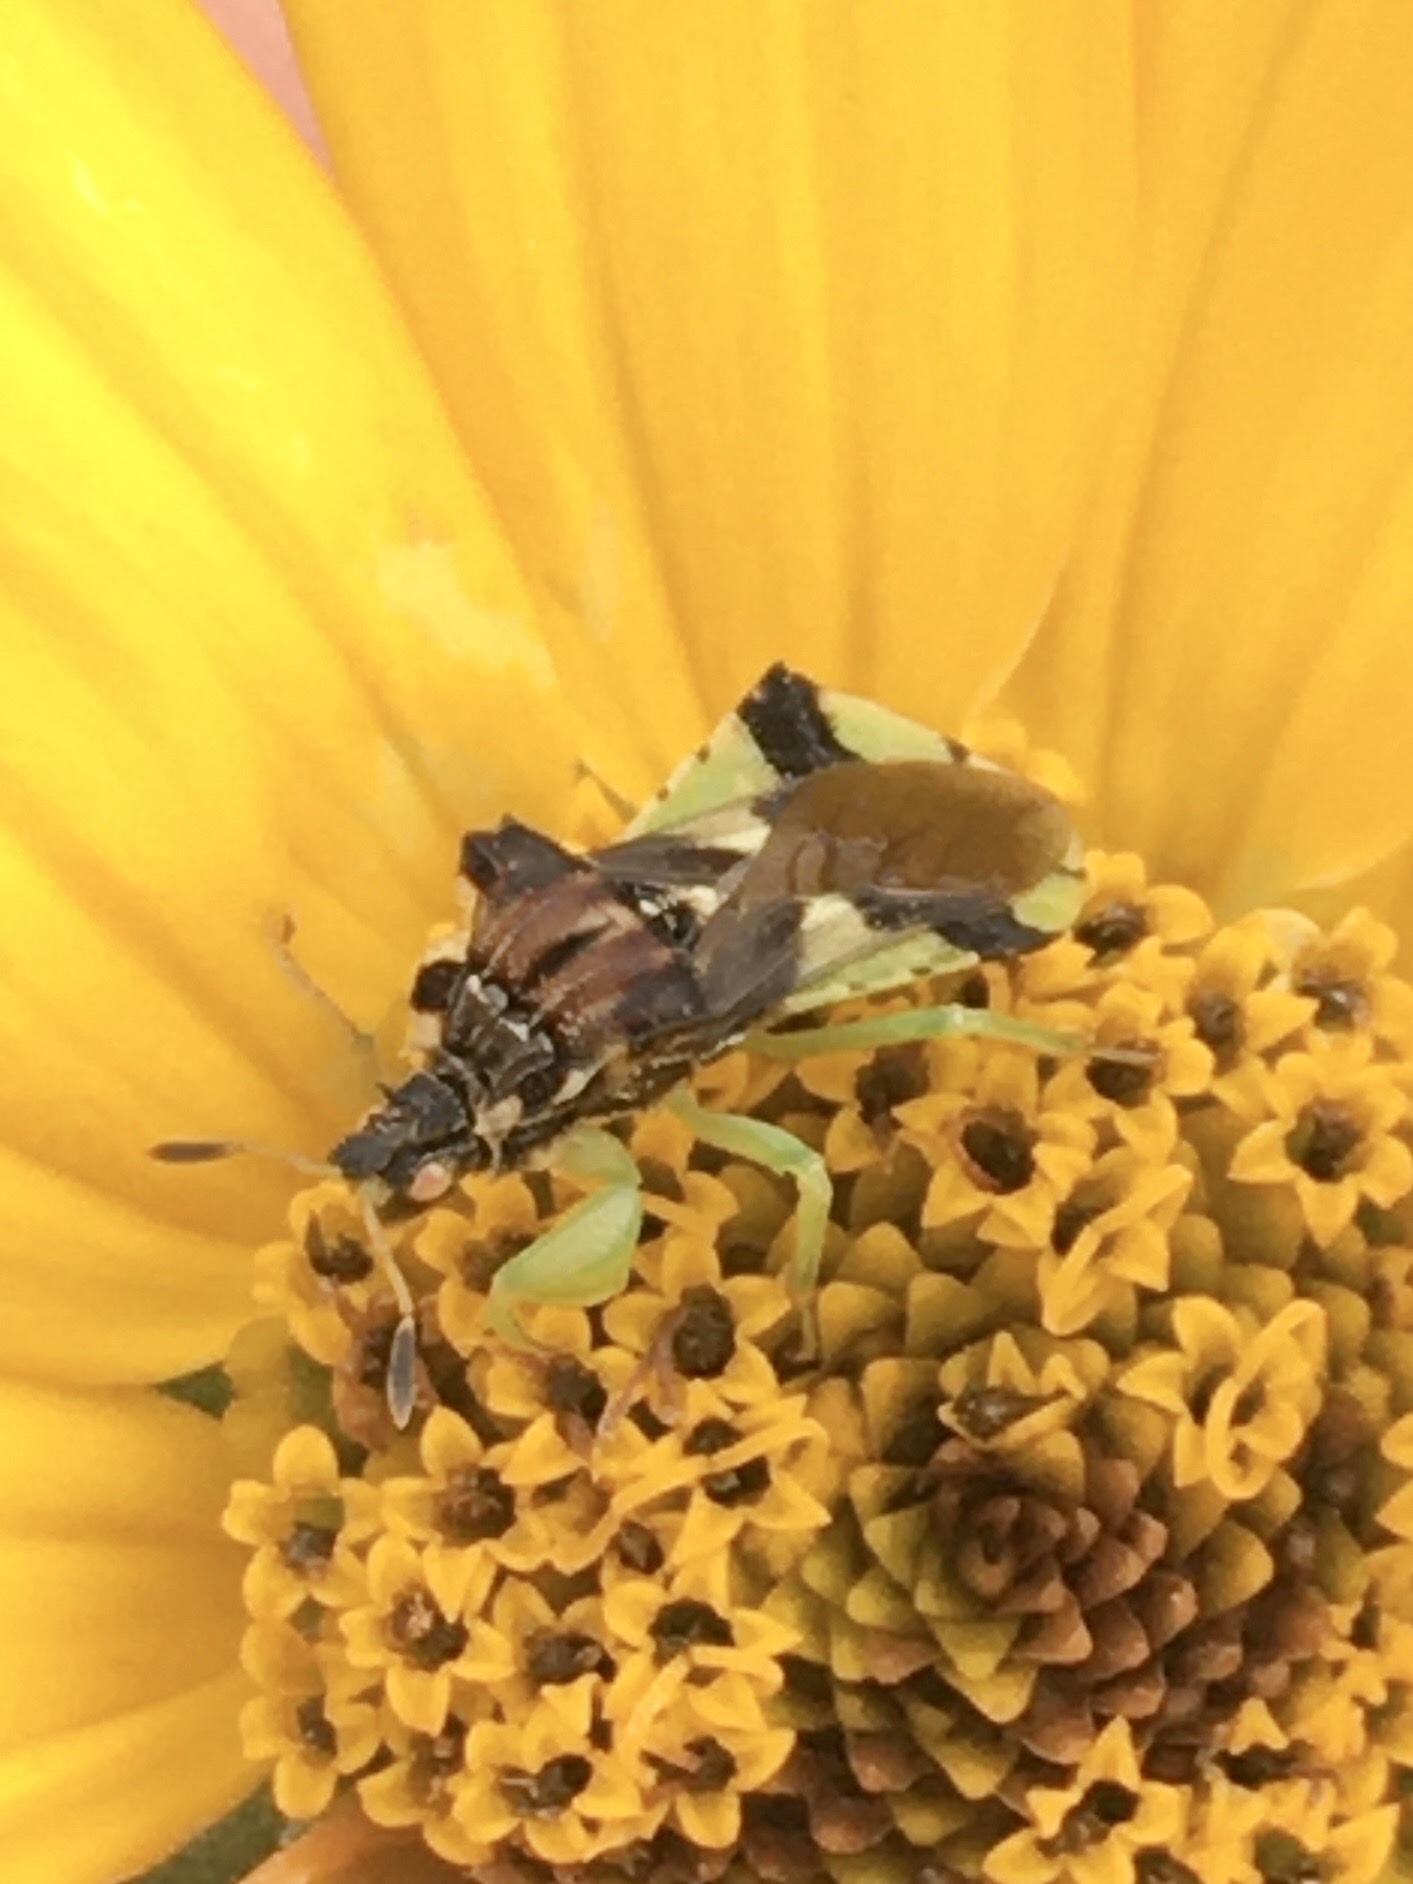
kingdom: Animalia
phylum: Arthropoda
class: Insecta
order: Hemiptera
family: Reduviidae
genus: Phymata
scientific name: Phymata americana
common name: Jagged ambush bug
